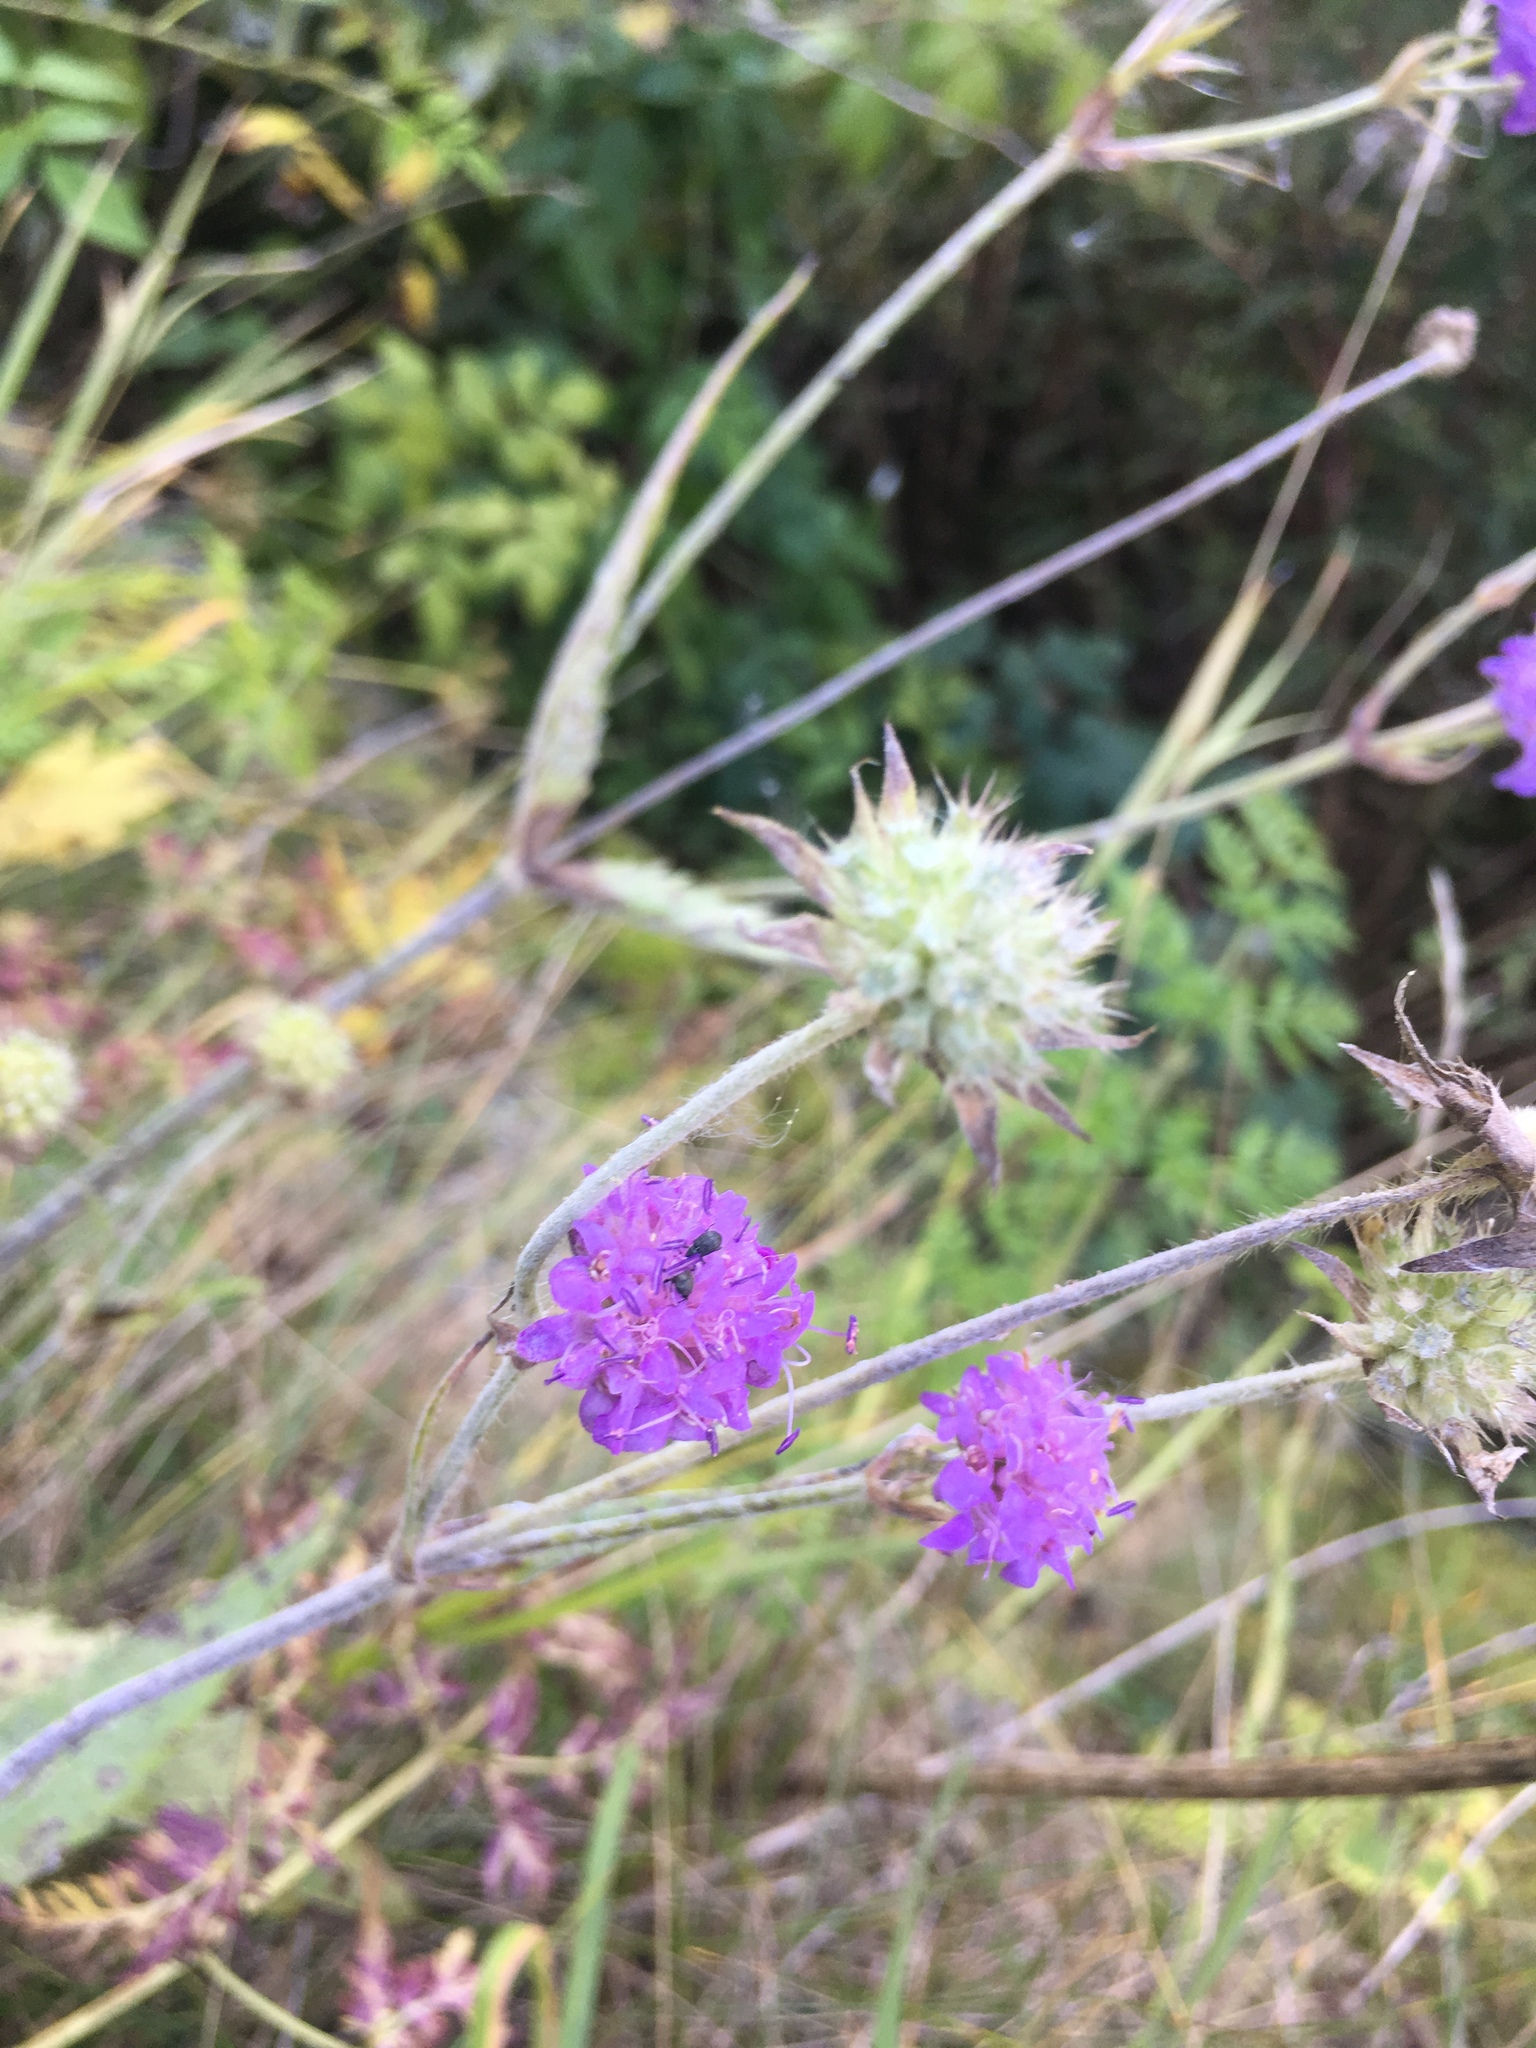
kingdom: Plantae
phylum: Tracheophyta
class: Magnoliopsida
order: Dipsacales
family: Caprifoliaceae
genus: Knautia
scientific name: Knautia arvensis
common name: Field scabiosa
